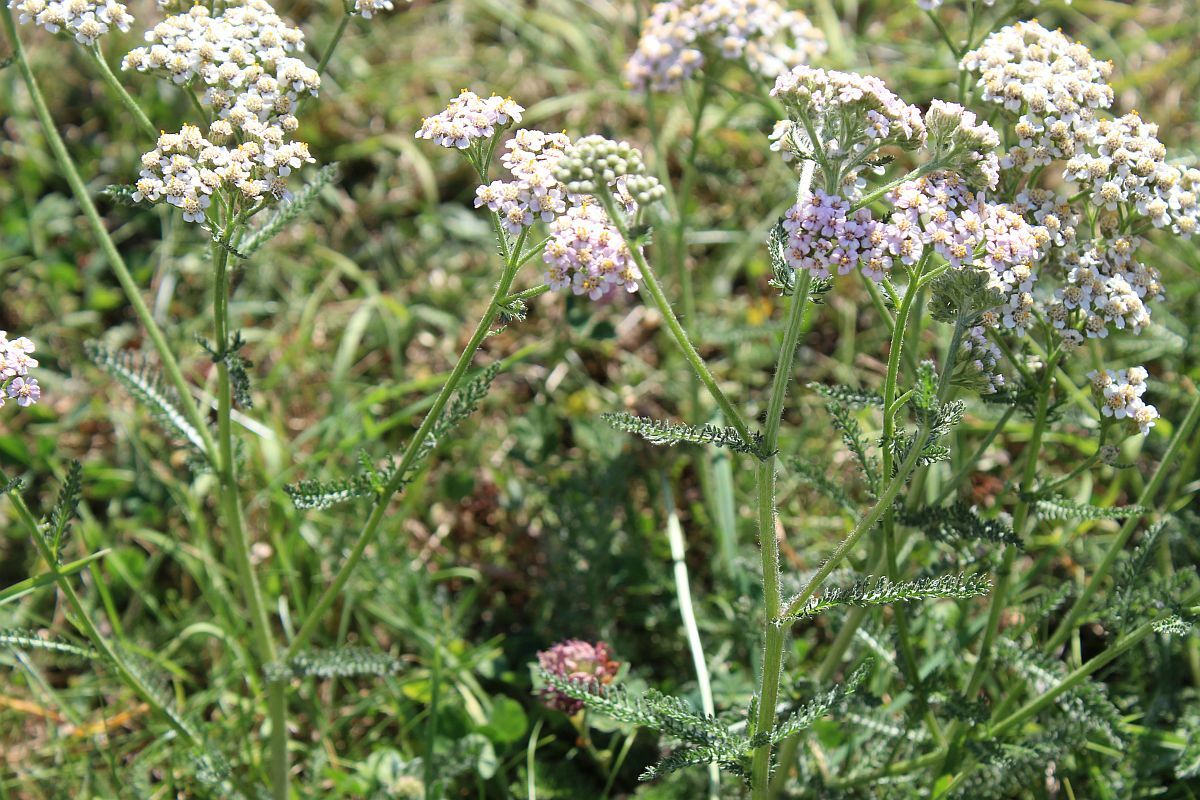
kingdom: Plantae
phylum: Tracheophyta
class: Magnoliopsida
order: Asterales
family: Asteraceae
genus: Achillea
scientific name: Achillea millefolium
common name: Yarrow
